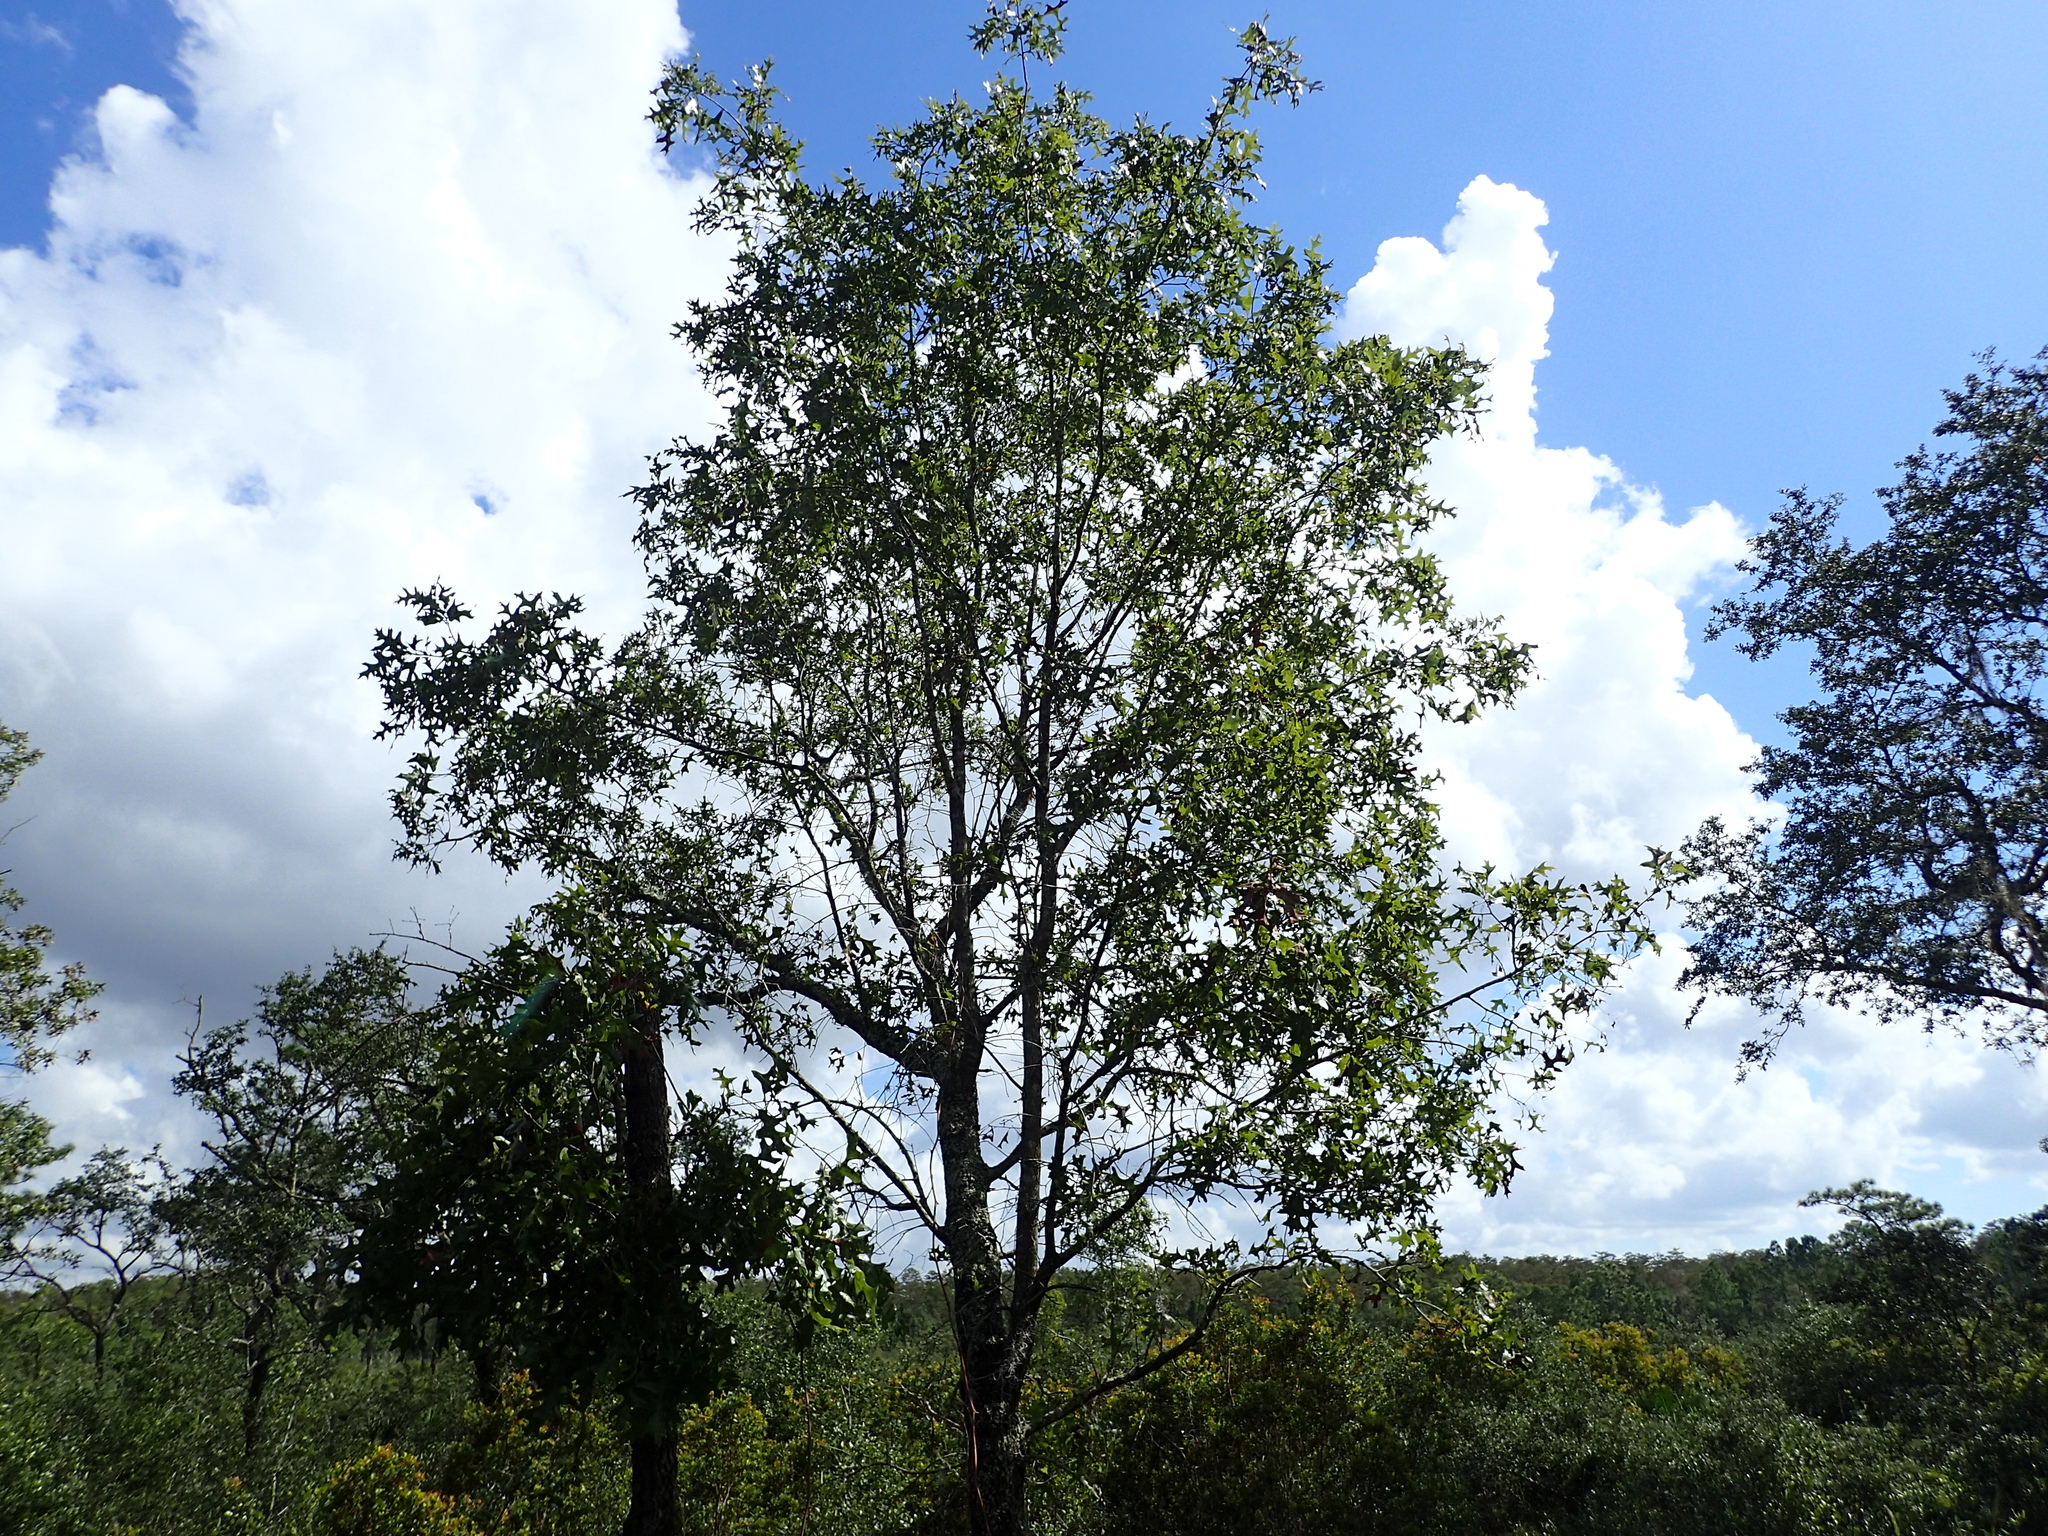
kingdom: Plantae
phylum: Tracheophyta
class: Magnoliopsida
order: Fagales
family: Fagaceae
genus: Quercus
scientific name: Quercus laevis
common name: Turkey oak
